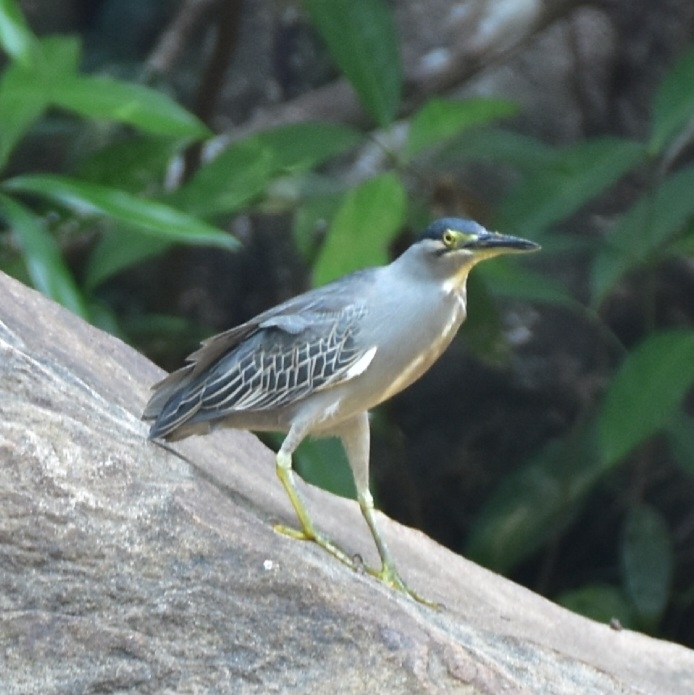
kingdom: Animalia
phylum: Chordata
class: Aves
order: Pelecaniformes
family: Ardeidae
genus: Butorides
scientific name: Butorides striata
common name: Striated heron
